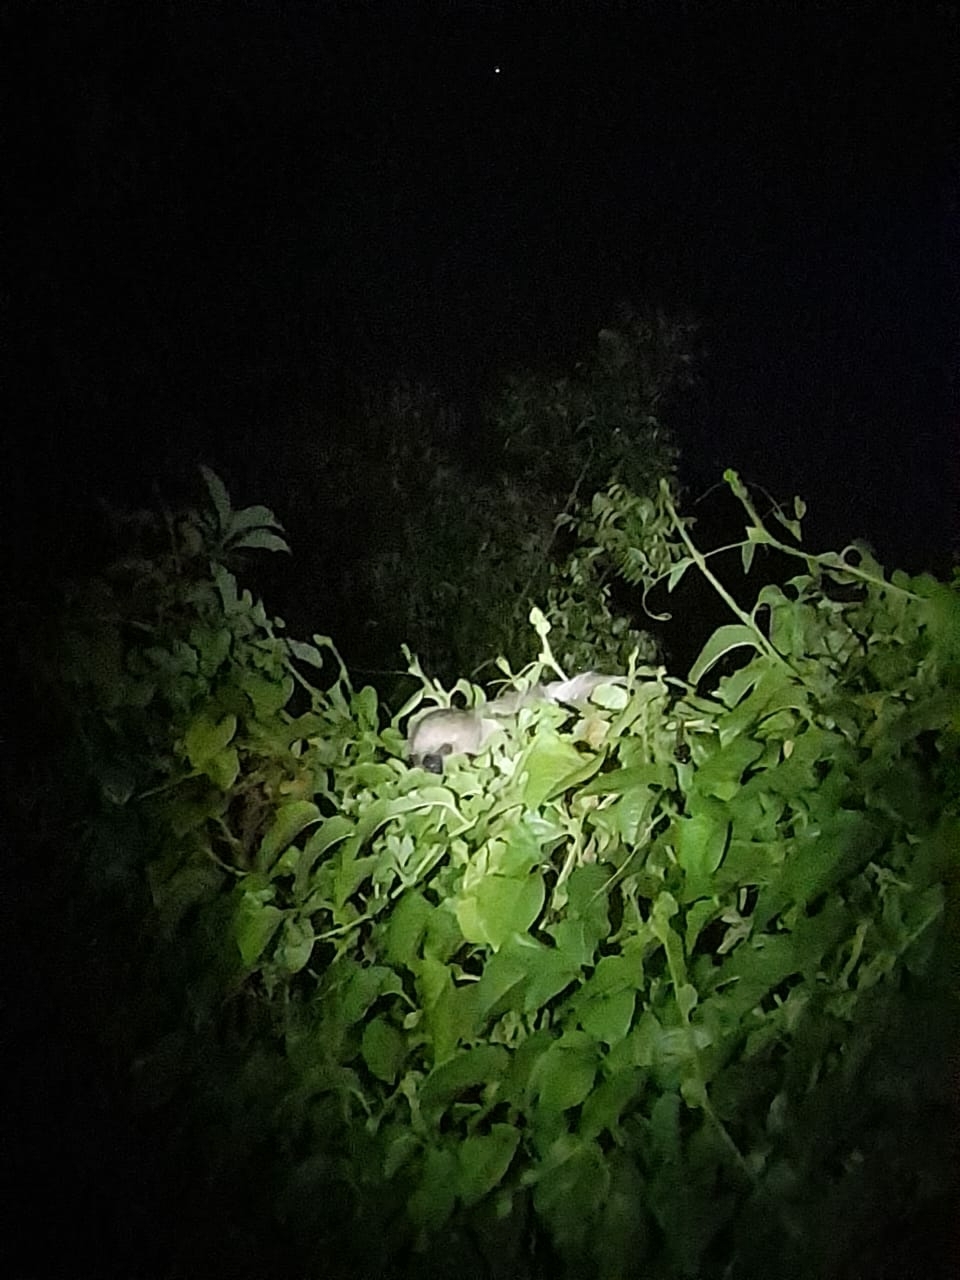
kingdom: Animalia
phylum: Chordata
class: Mammalia
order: Pilosa
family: Megalonychidae
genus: Choloepus
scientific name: Choloepus didactylus
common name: Southern two-toed sloth
